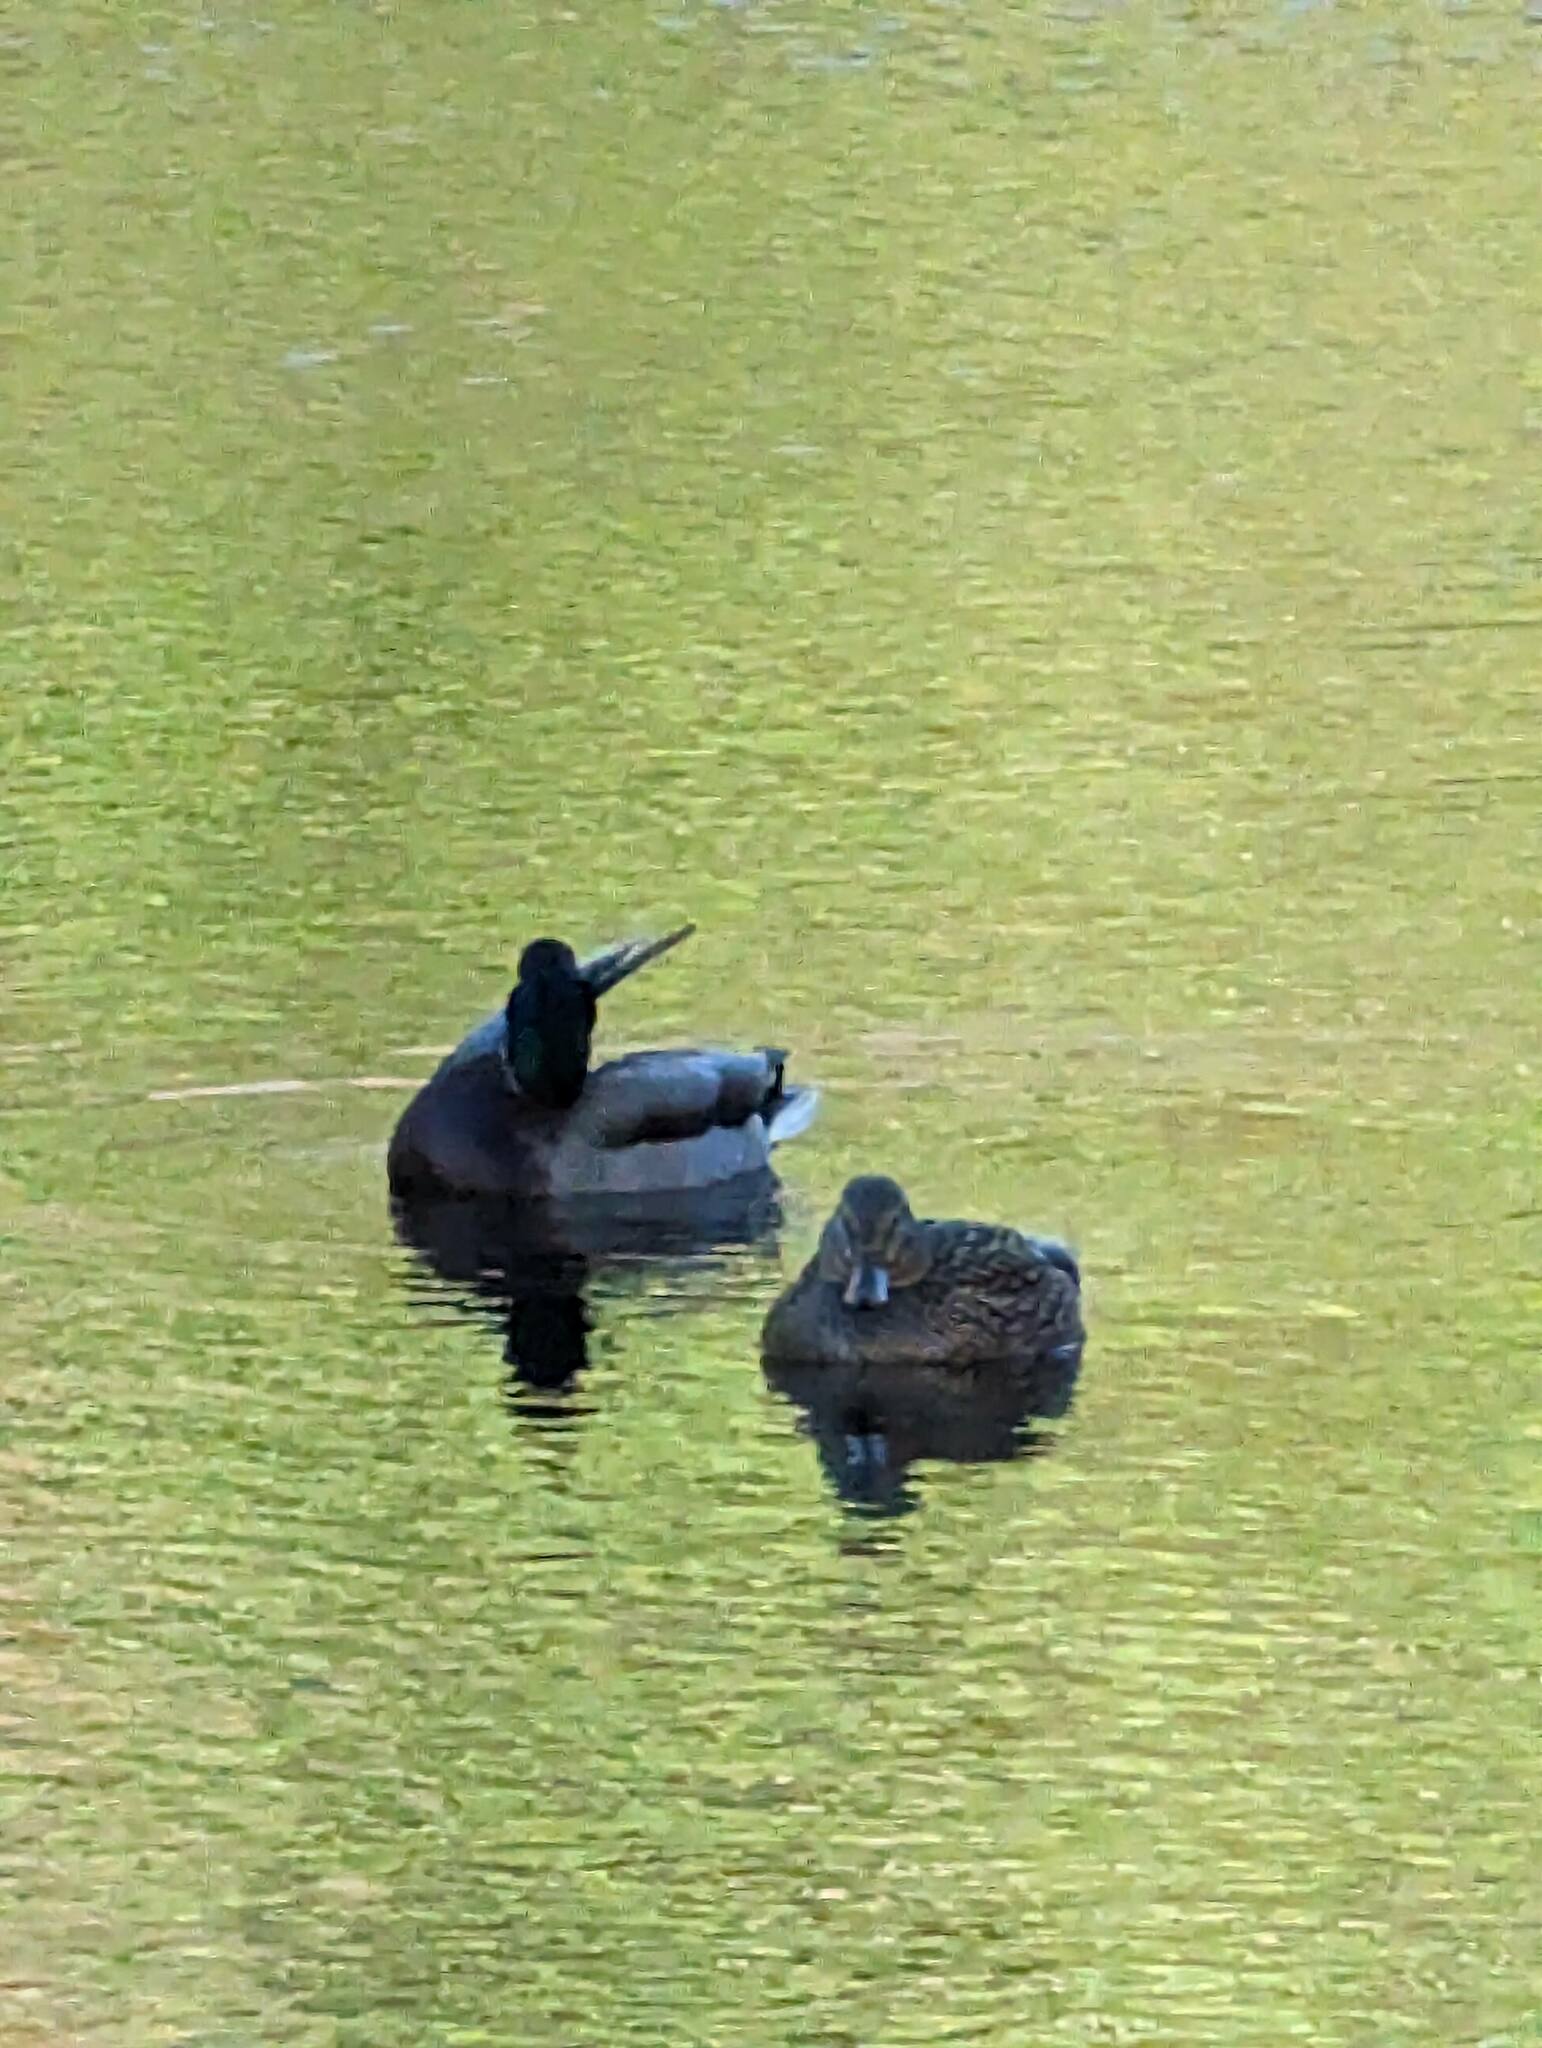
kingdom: Animalia
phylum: Chordata
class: Aves
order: Anseriformes
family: Anatidae
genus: Anas
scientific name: Anas platyrhynchos
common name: Mallard
